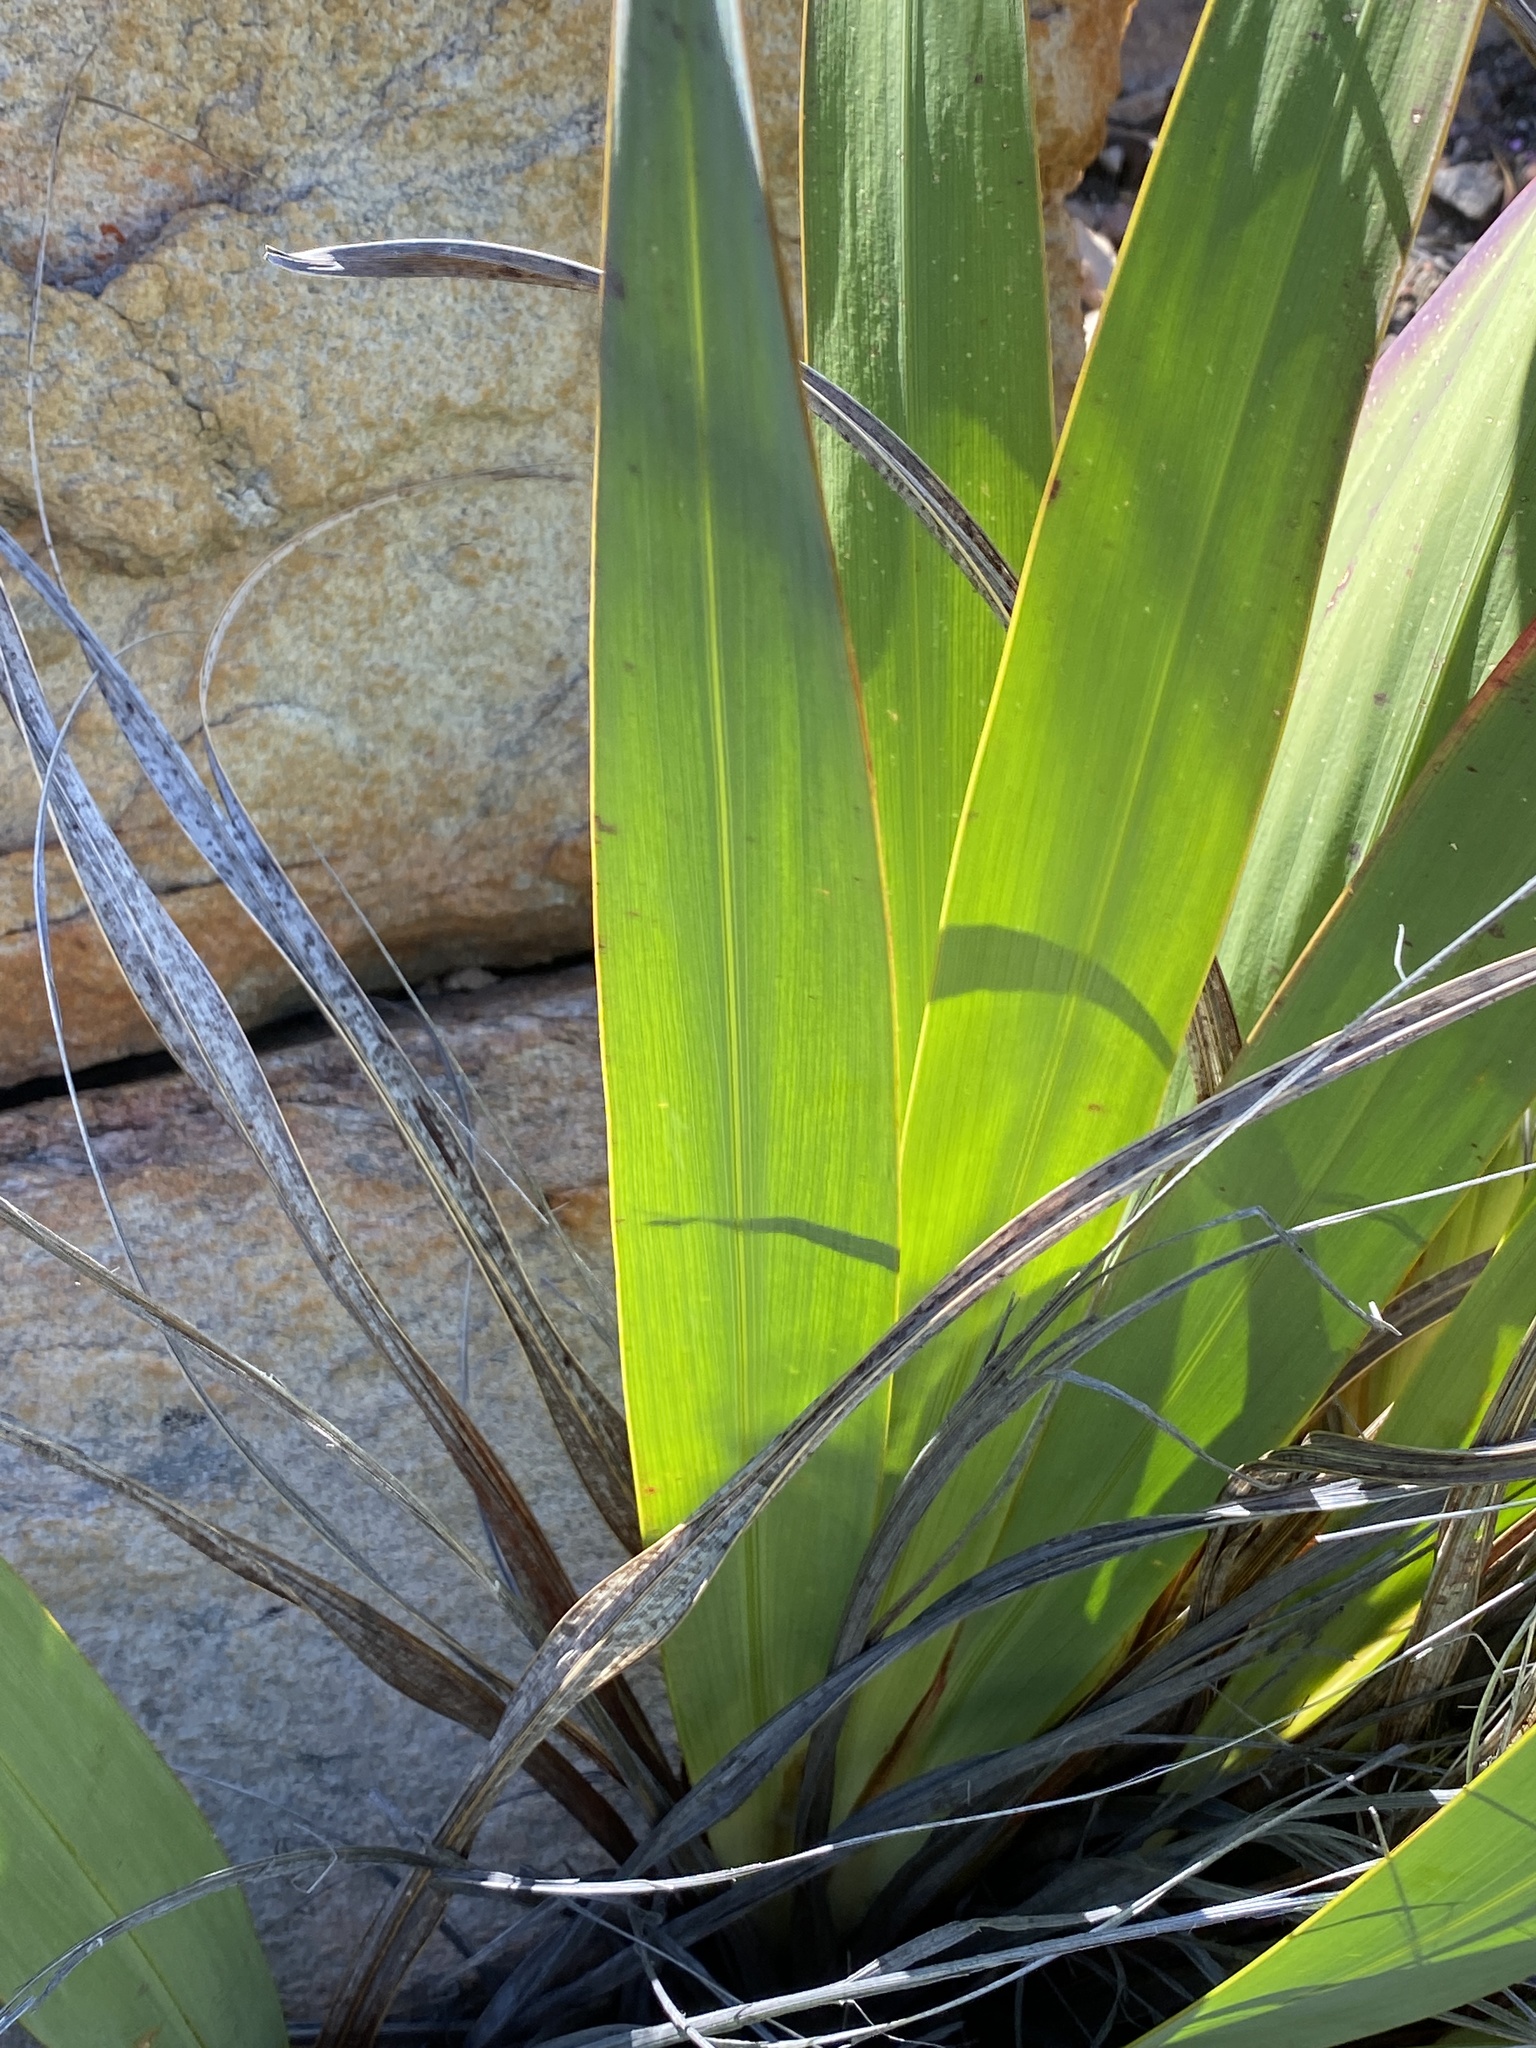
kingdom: Plantae
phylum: Tracheophyta
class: Liliopsida
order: Asparagales
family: Iridaceae
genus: Watsonia
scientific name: Watsonia fourcadei
